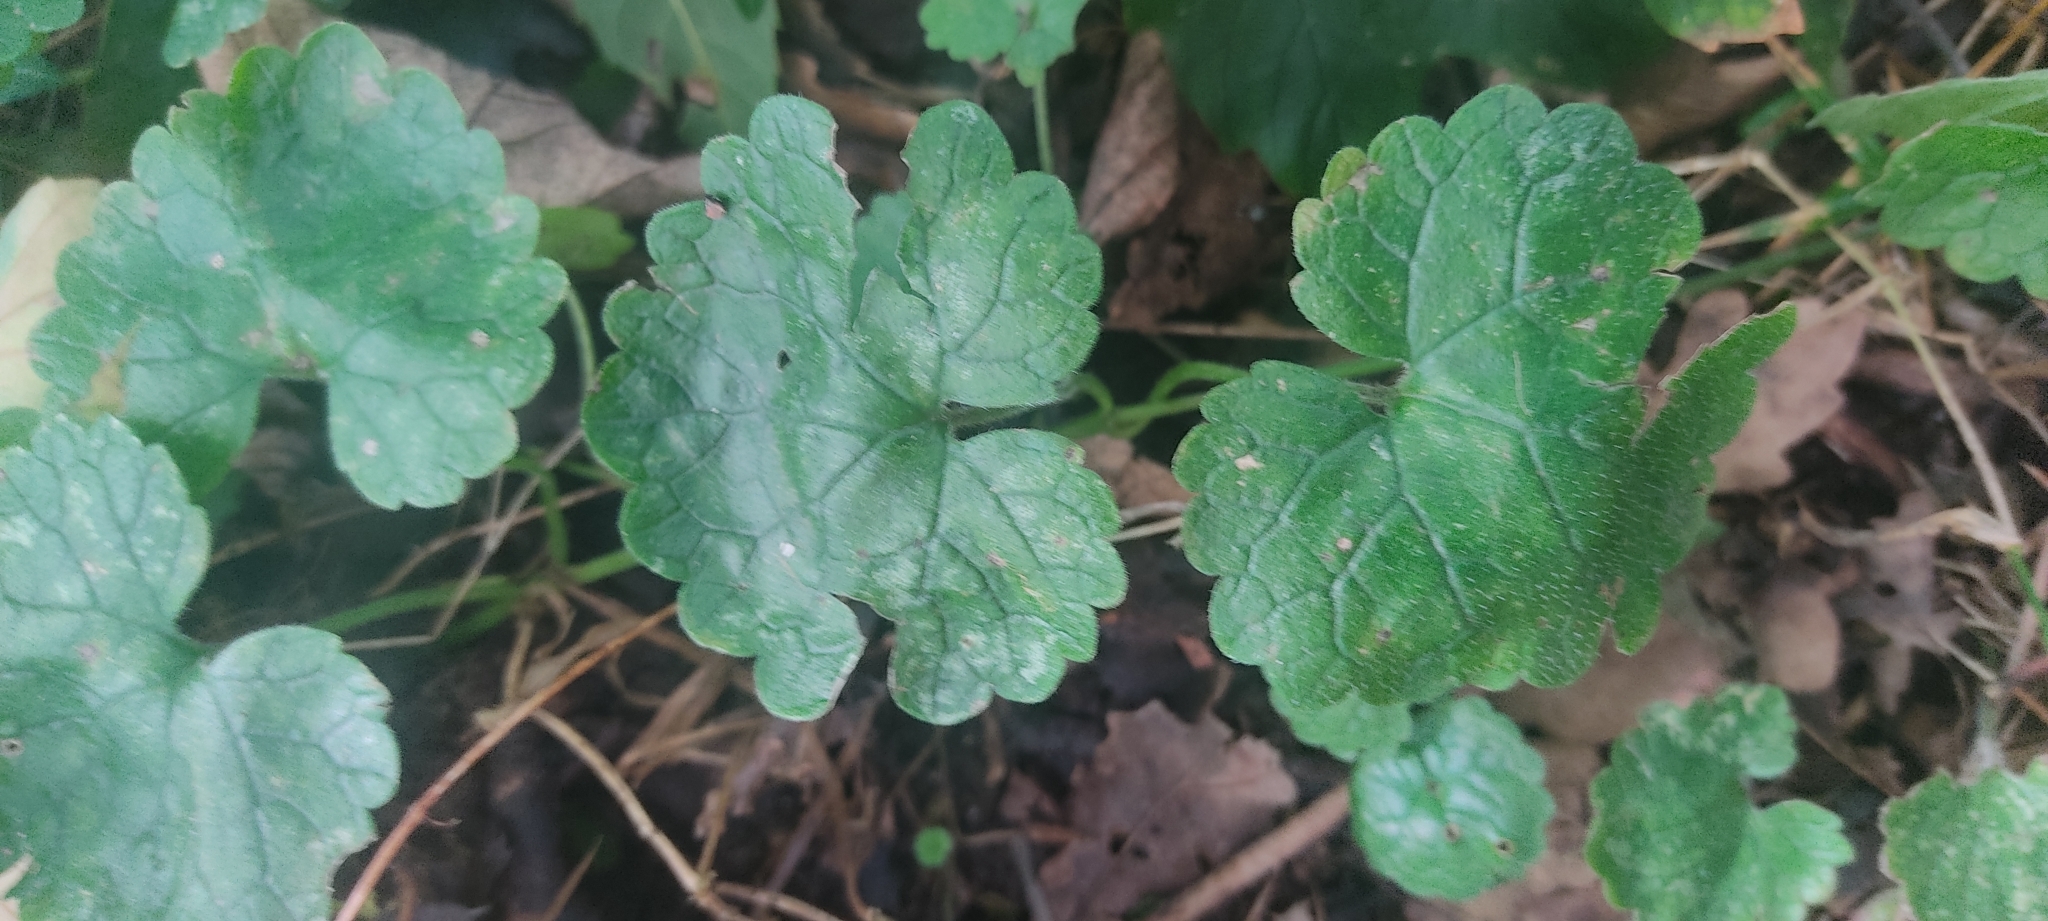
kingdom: Plantae
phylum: Tracheophyta
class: Magnoliopsida
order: Lamiales
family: Lamiaceae
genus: Glechoma
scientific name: Glechoma hederacea
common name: Ground ivy
